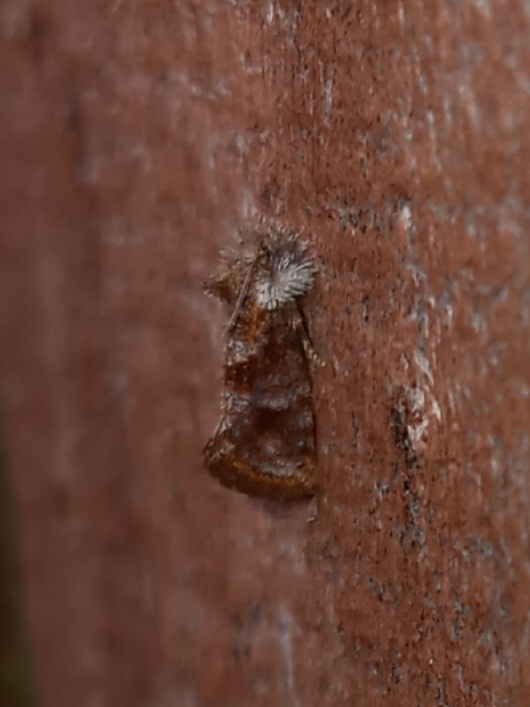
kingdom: Animalia
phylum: Arthropoda
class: Insecta
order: Lepidoptera
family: Tineidae
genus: Acrolophus
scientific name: Acrolophus panamae
